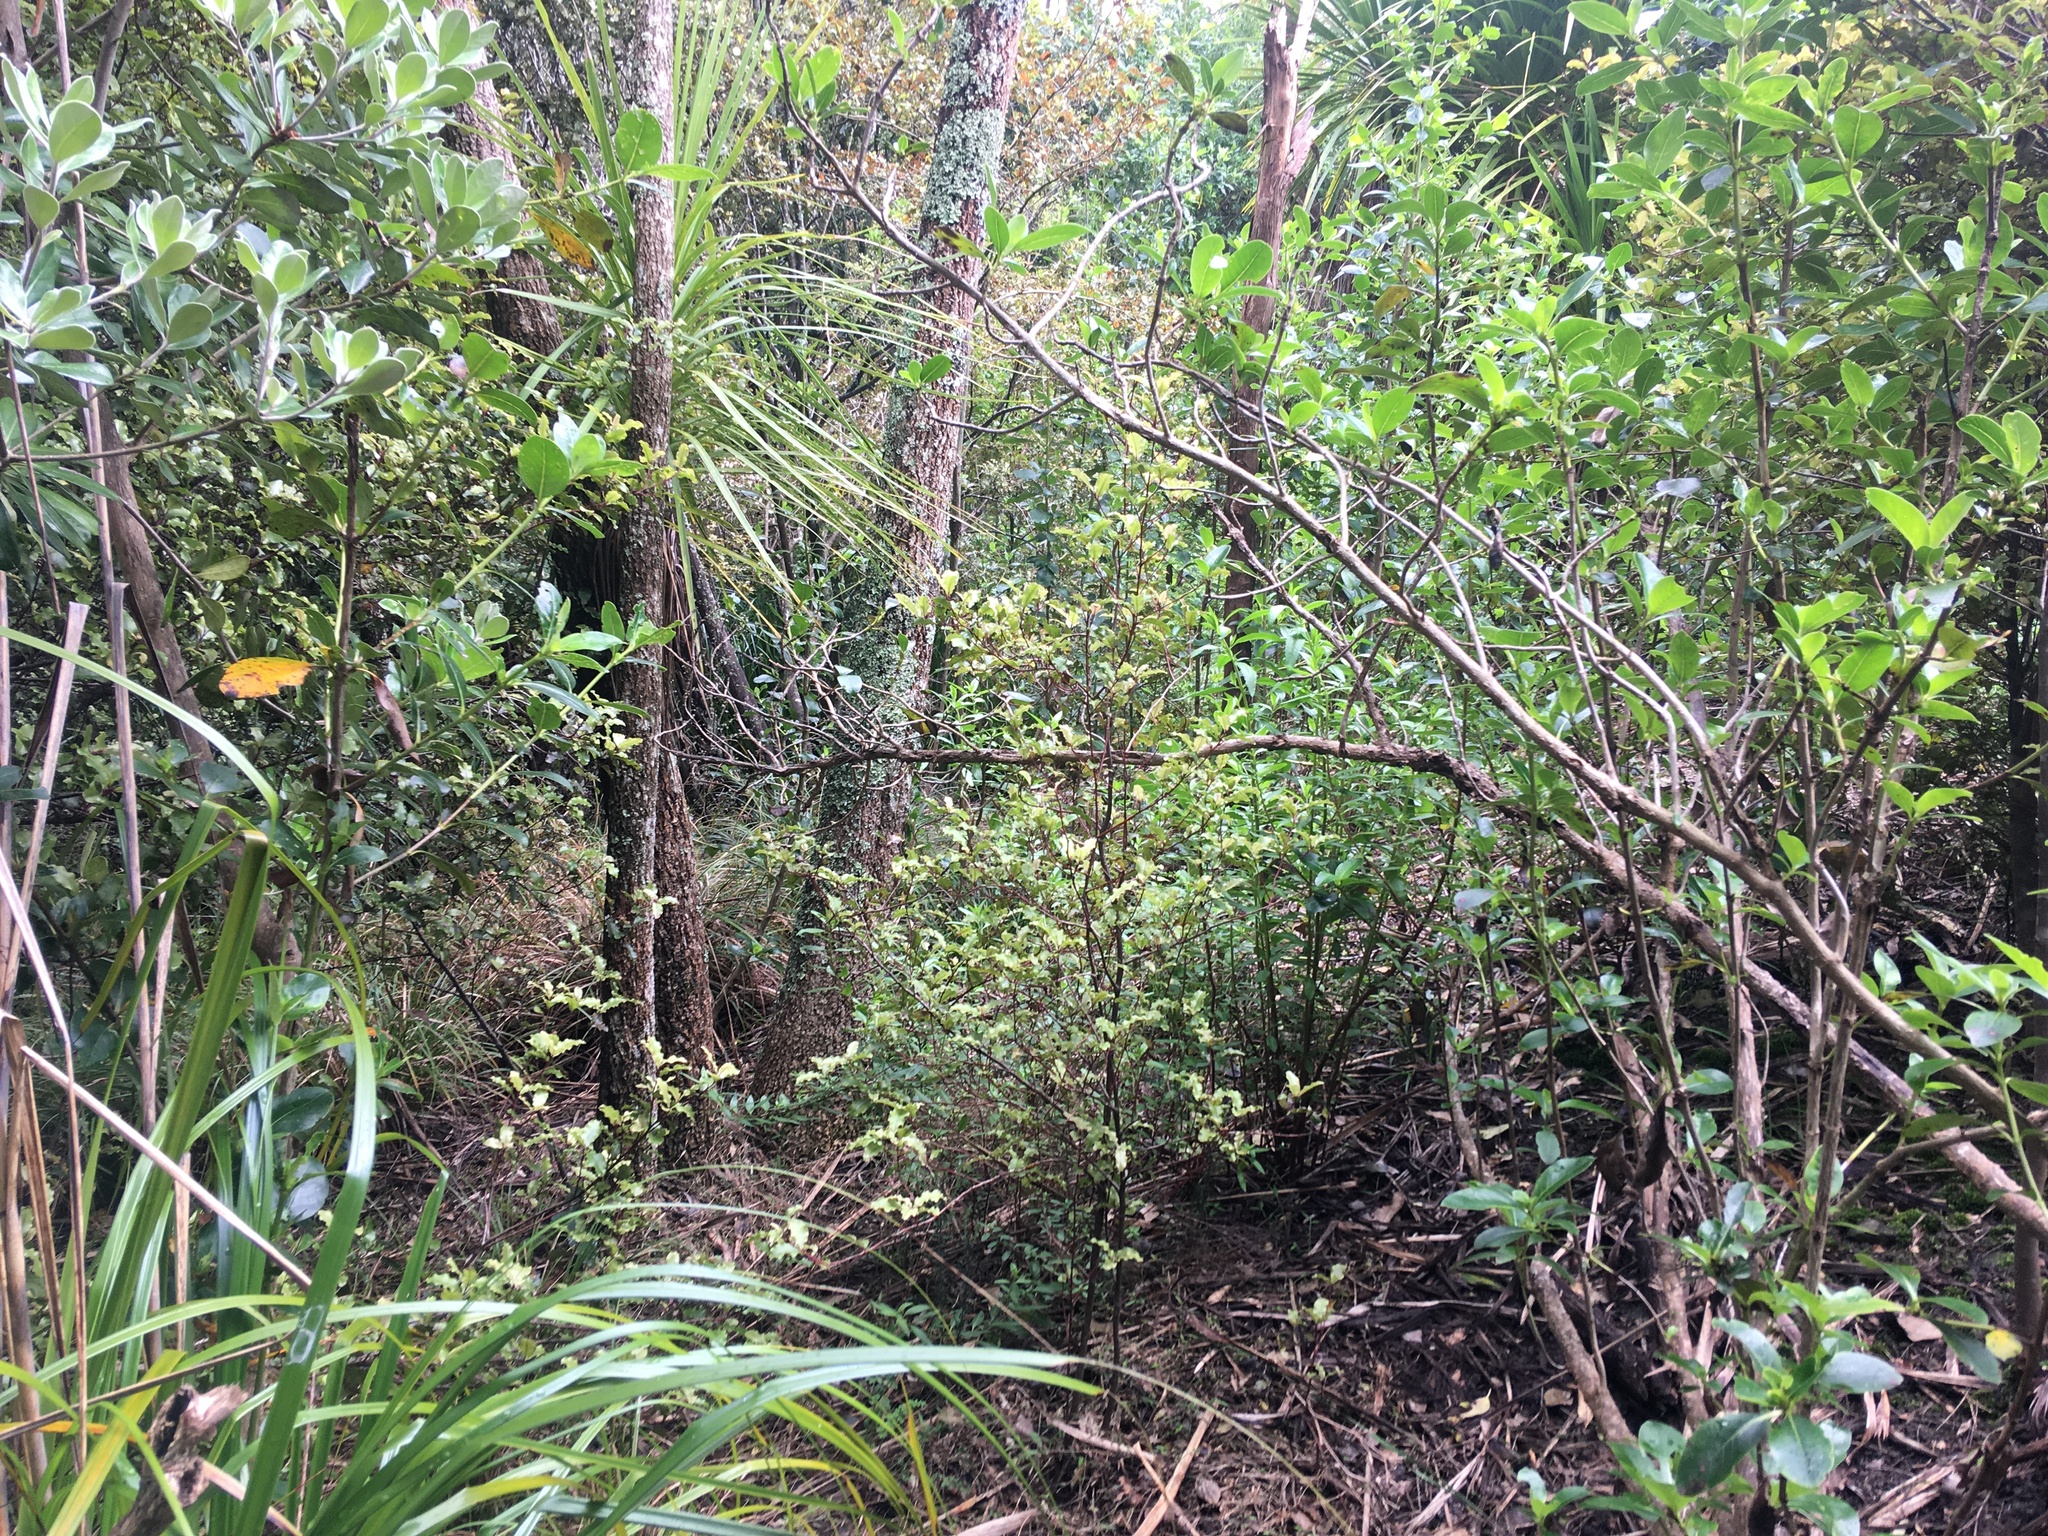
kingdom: Plantae
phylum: Tracheophyta
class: Magnoliopsida
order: Ericales
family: Primulaceae
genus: Myrsine
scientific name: Myrsine australis
